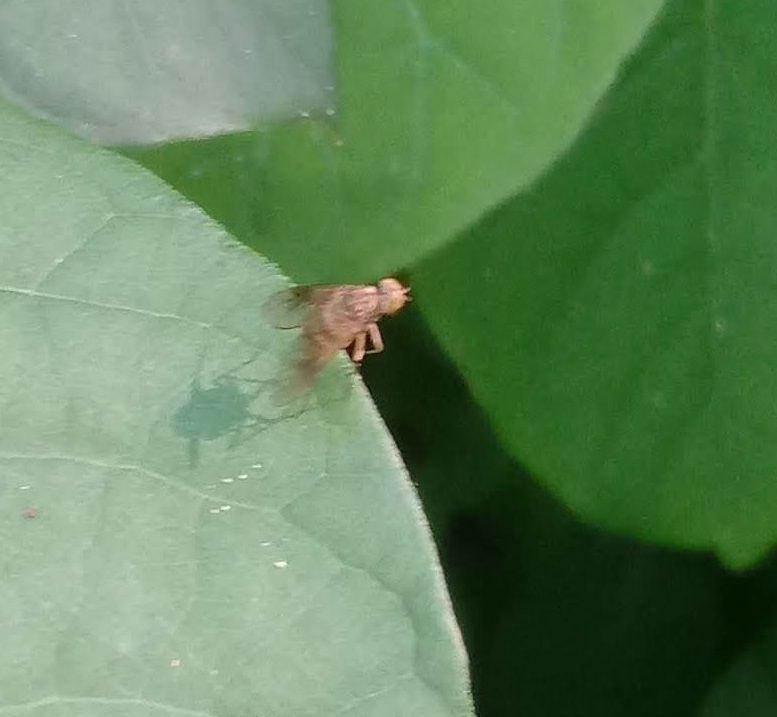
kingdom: Animalia
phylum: Arthropoda
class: Insecta
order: Diptera
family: Rhagionidae
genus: Chrysopilus
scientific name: Chrysopilus quadratus
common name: Quadrate snipe fly
